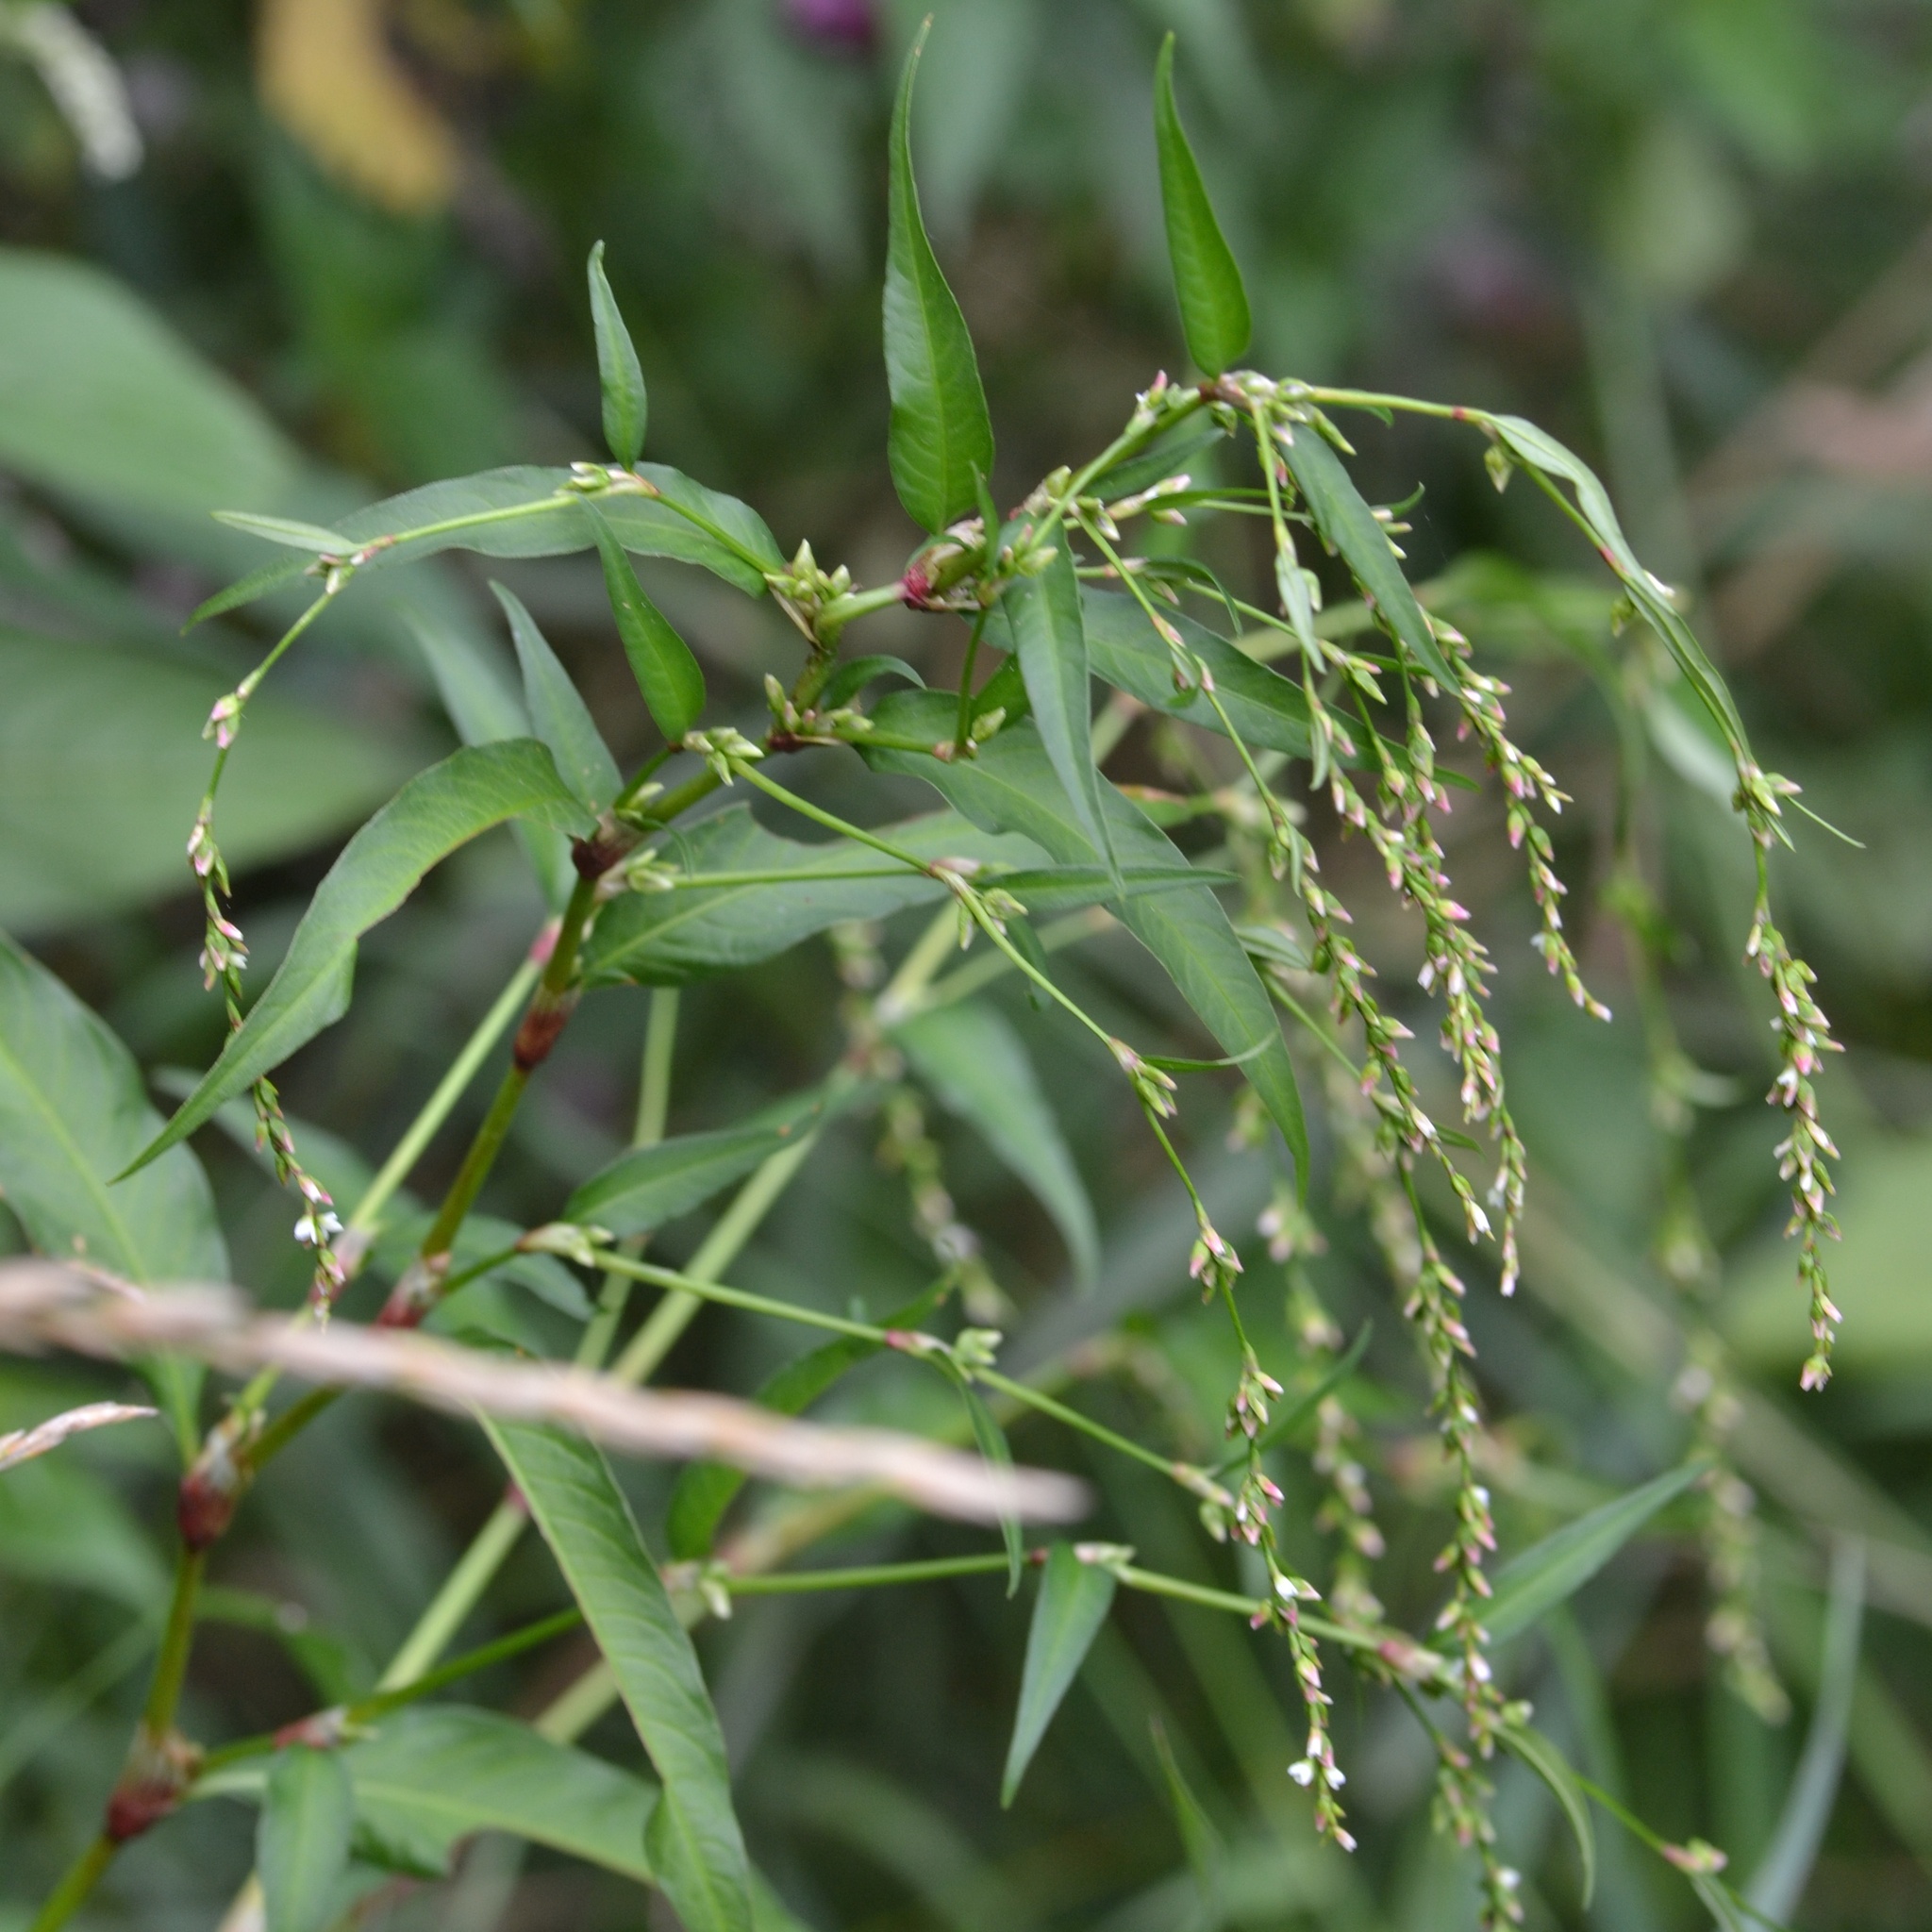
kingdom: Plantae
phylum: Tracheophyta
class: Magnoliopsida
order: Caryophyllales
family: Polygonaceae
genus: Persicaria
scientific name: Persicaria hydropiper
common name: Water-pepper
